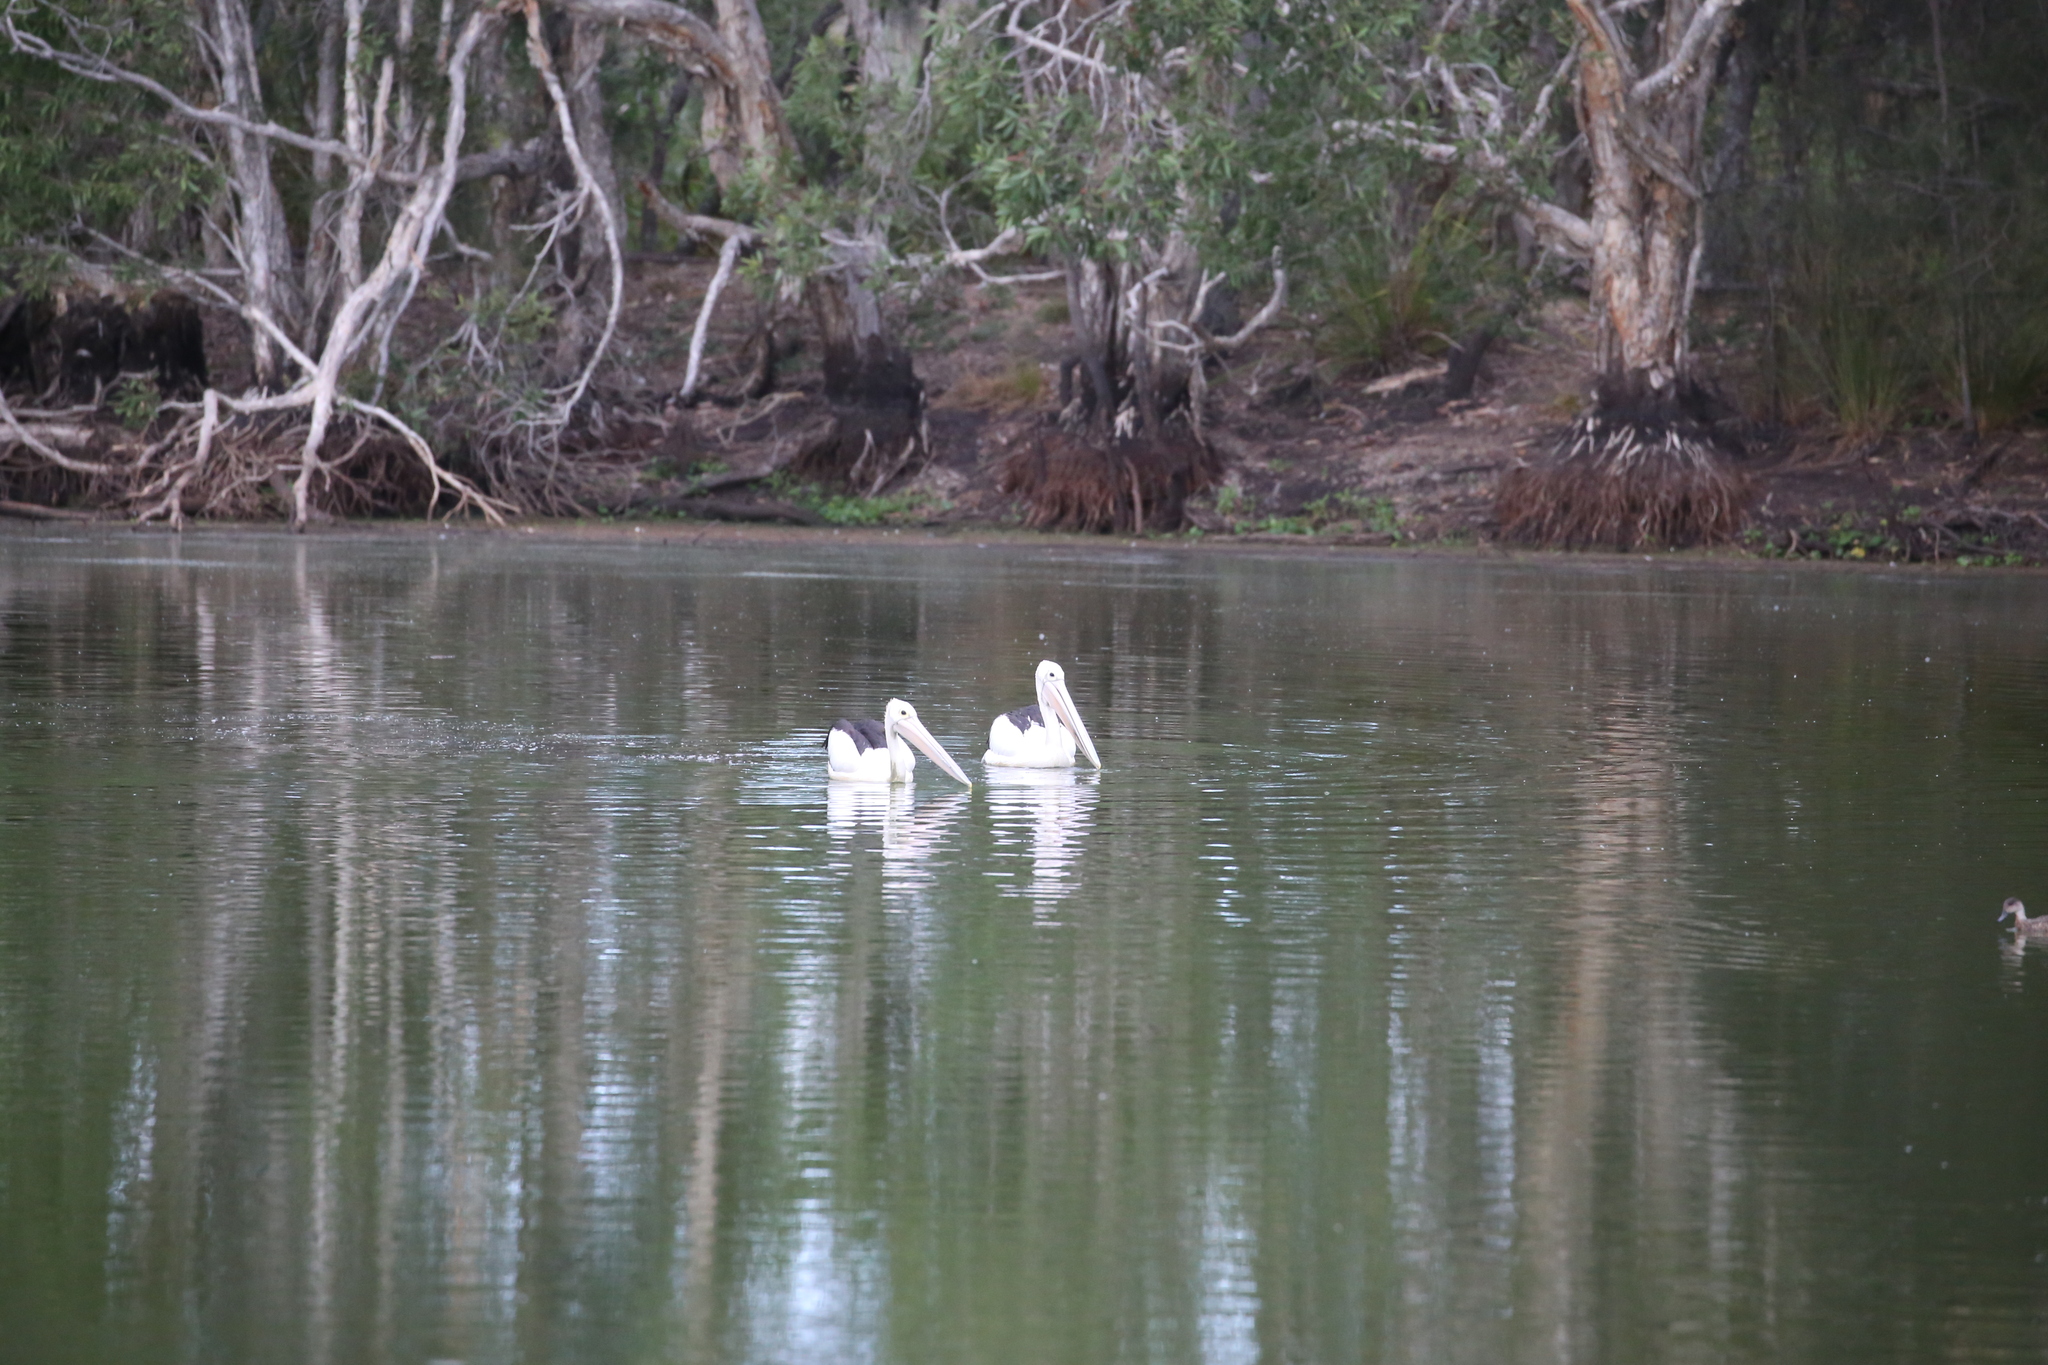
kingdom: Animalia
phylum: Chordata
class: Aves
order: Pelecaniformes
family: Pelecanidae
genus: Pelecanus
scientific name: Pelecanus conspicillatus
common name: Australian pelican
